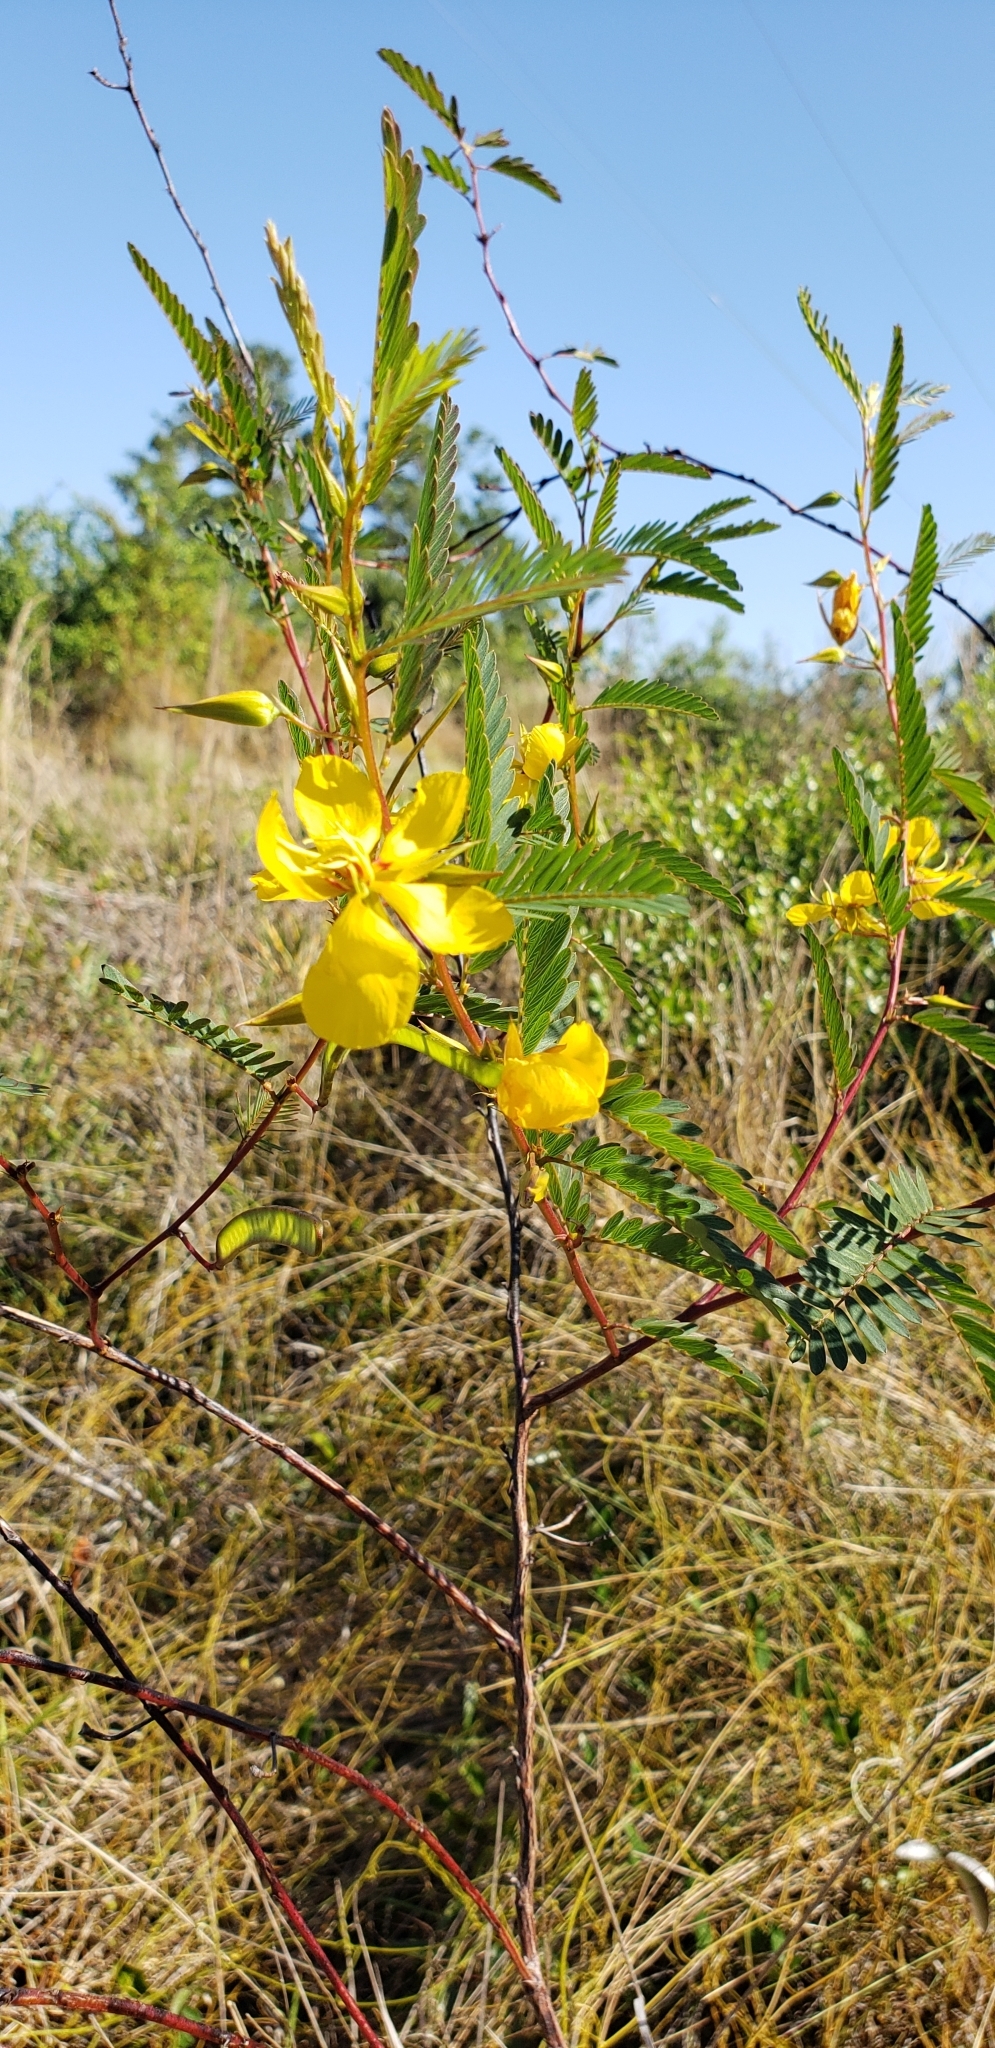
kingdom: Plantae
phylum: Tracheophyta
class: Magnoliopsida
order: Fabales
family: Fabaceae
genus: Chamaecrista
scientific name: Chamaecrista fasciculata
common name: Golden cassia
